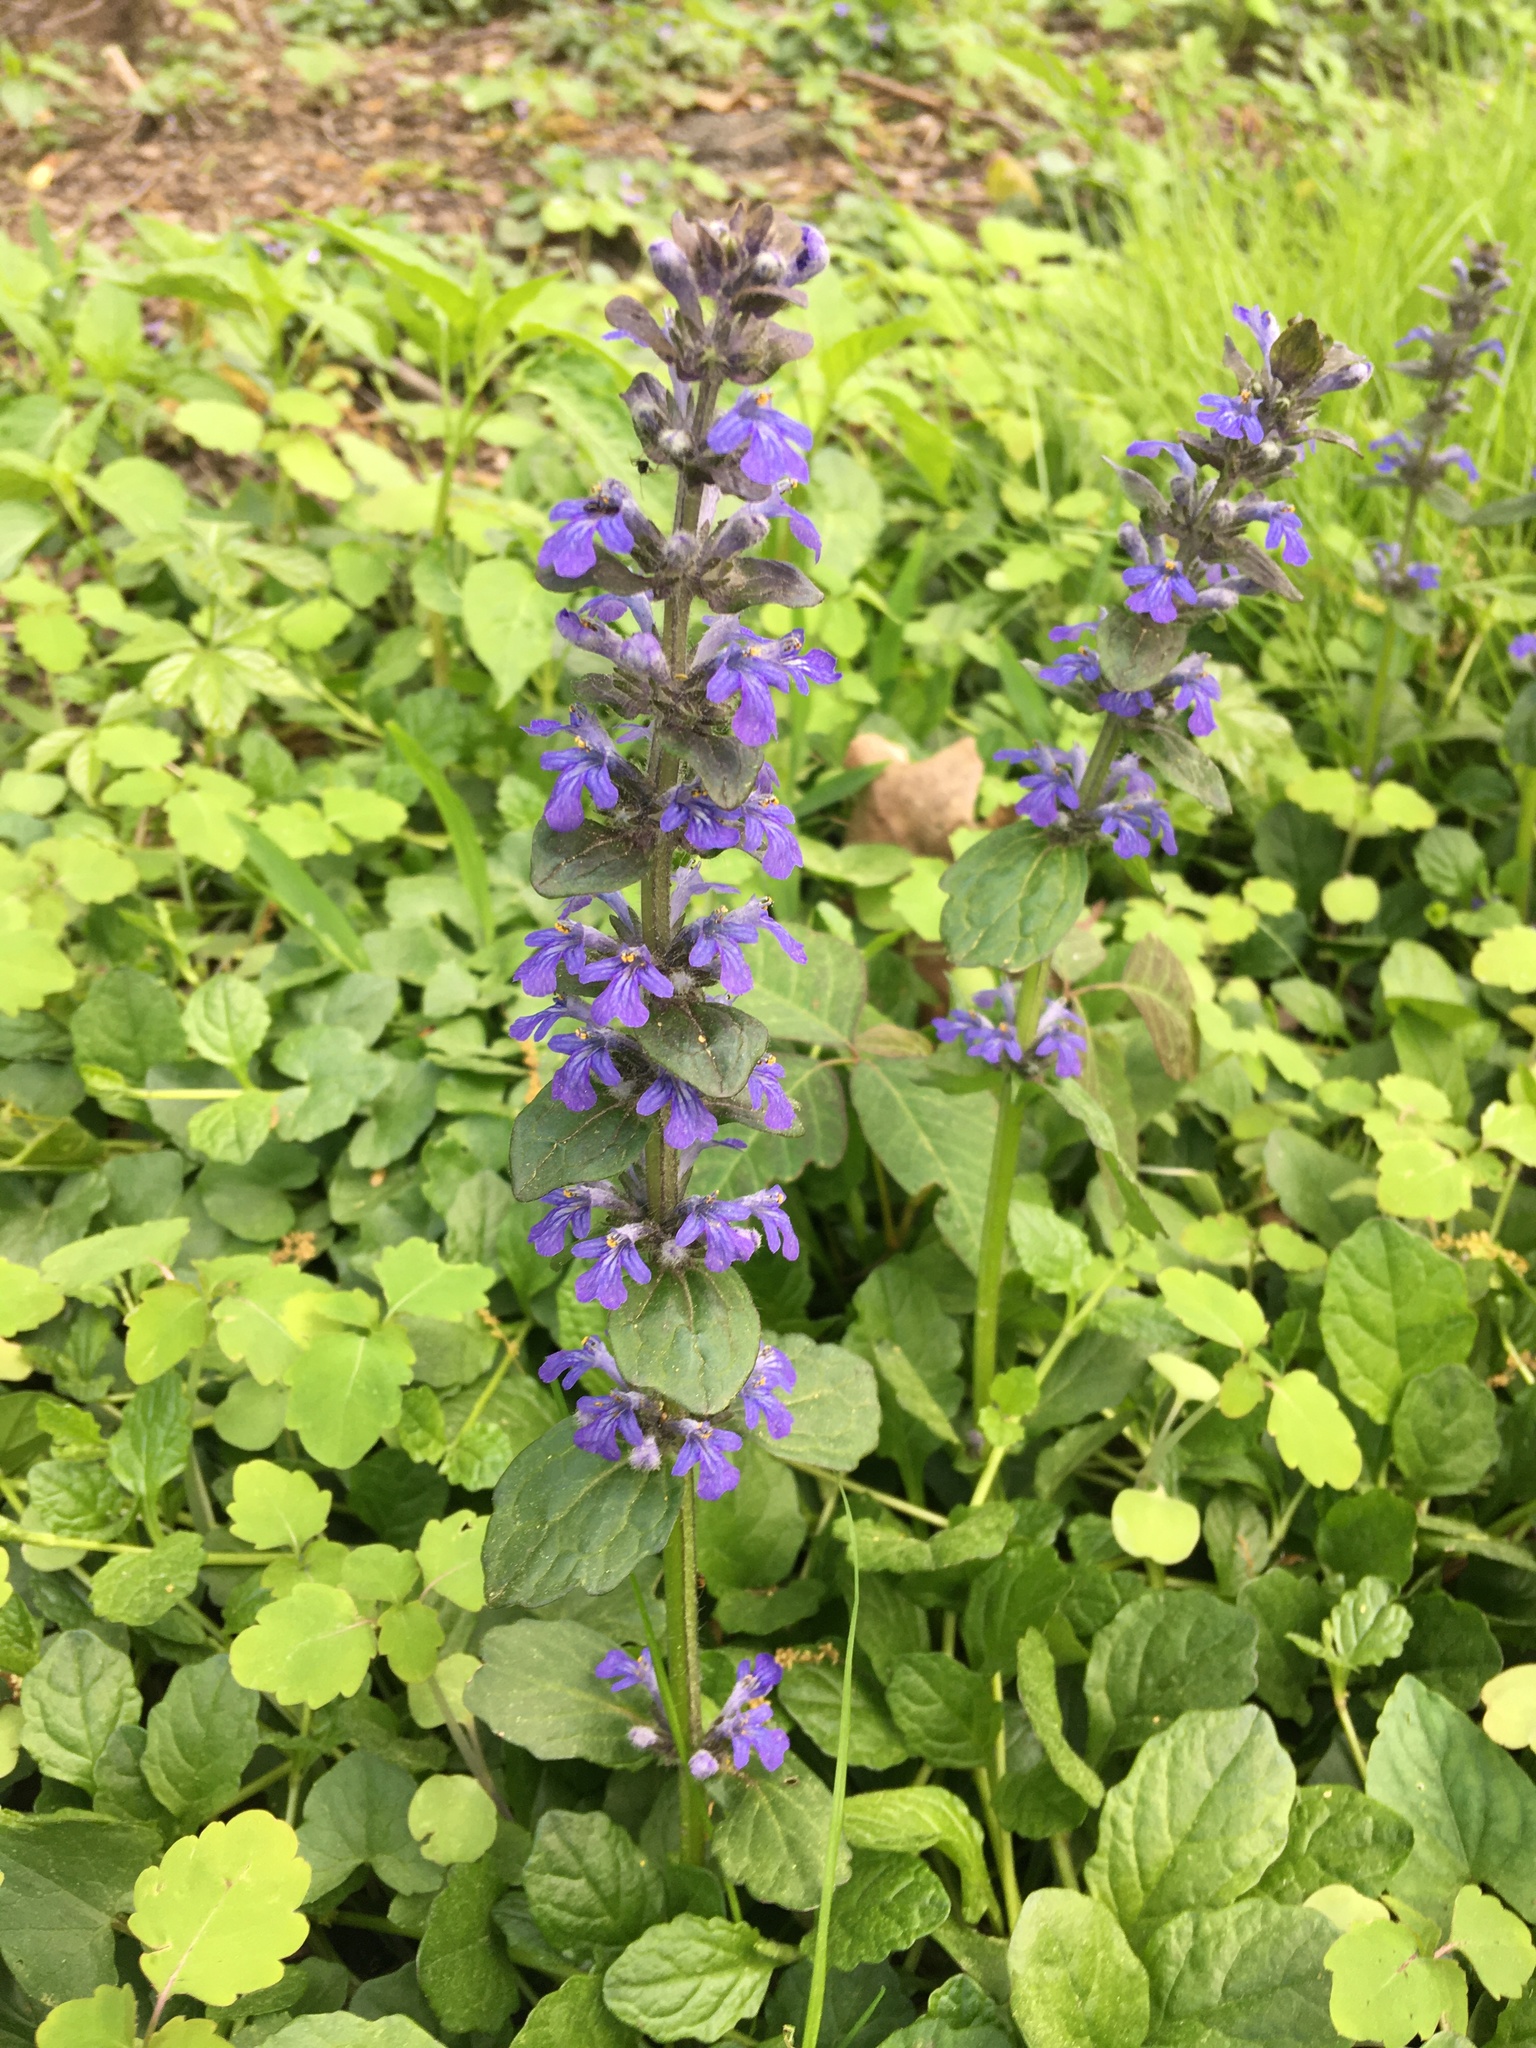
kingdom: Plantae
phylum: Tracheophyta
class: Magnoliopsida
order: Lamiales
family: Lamiaceae
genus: Ajuga
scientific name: Ajuga reptans
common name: Bugle
